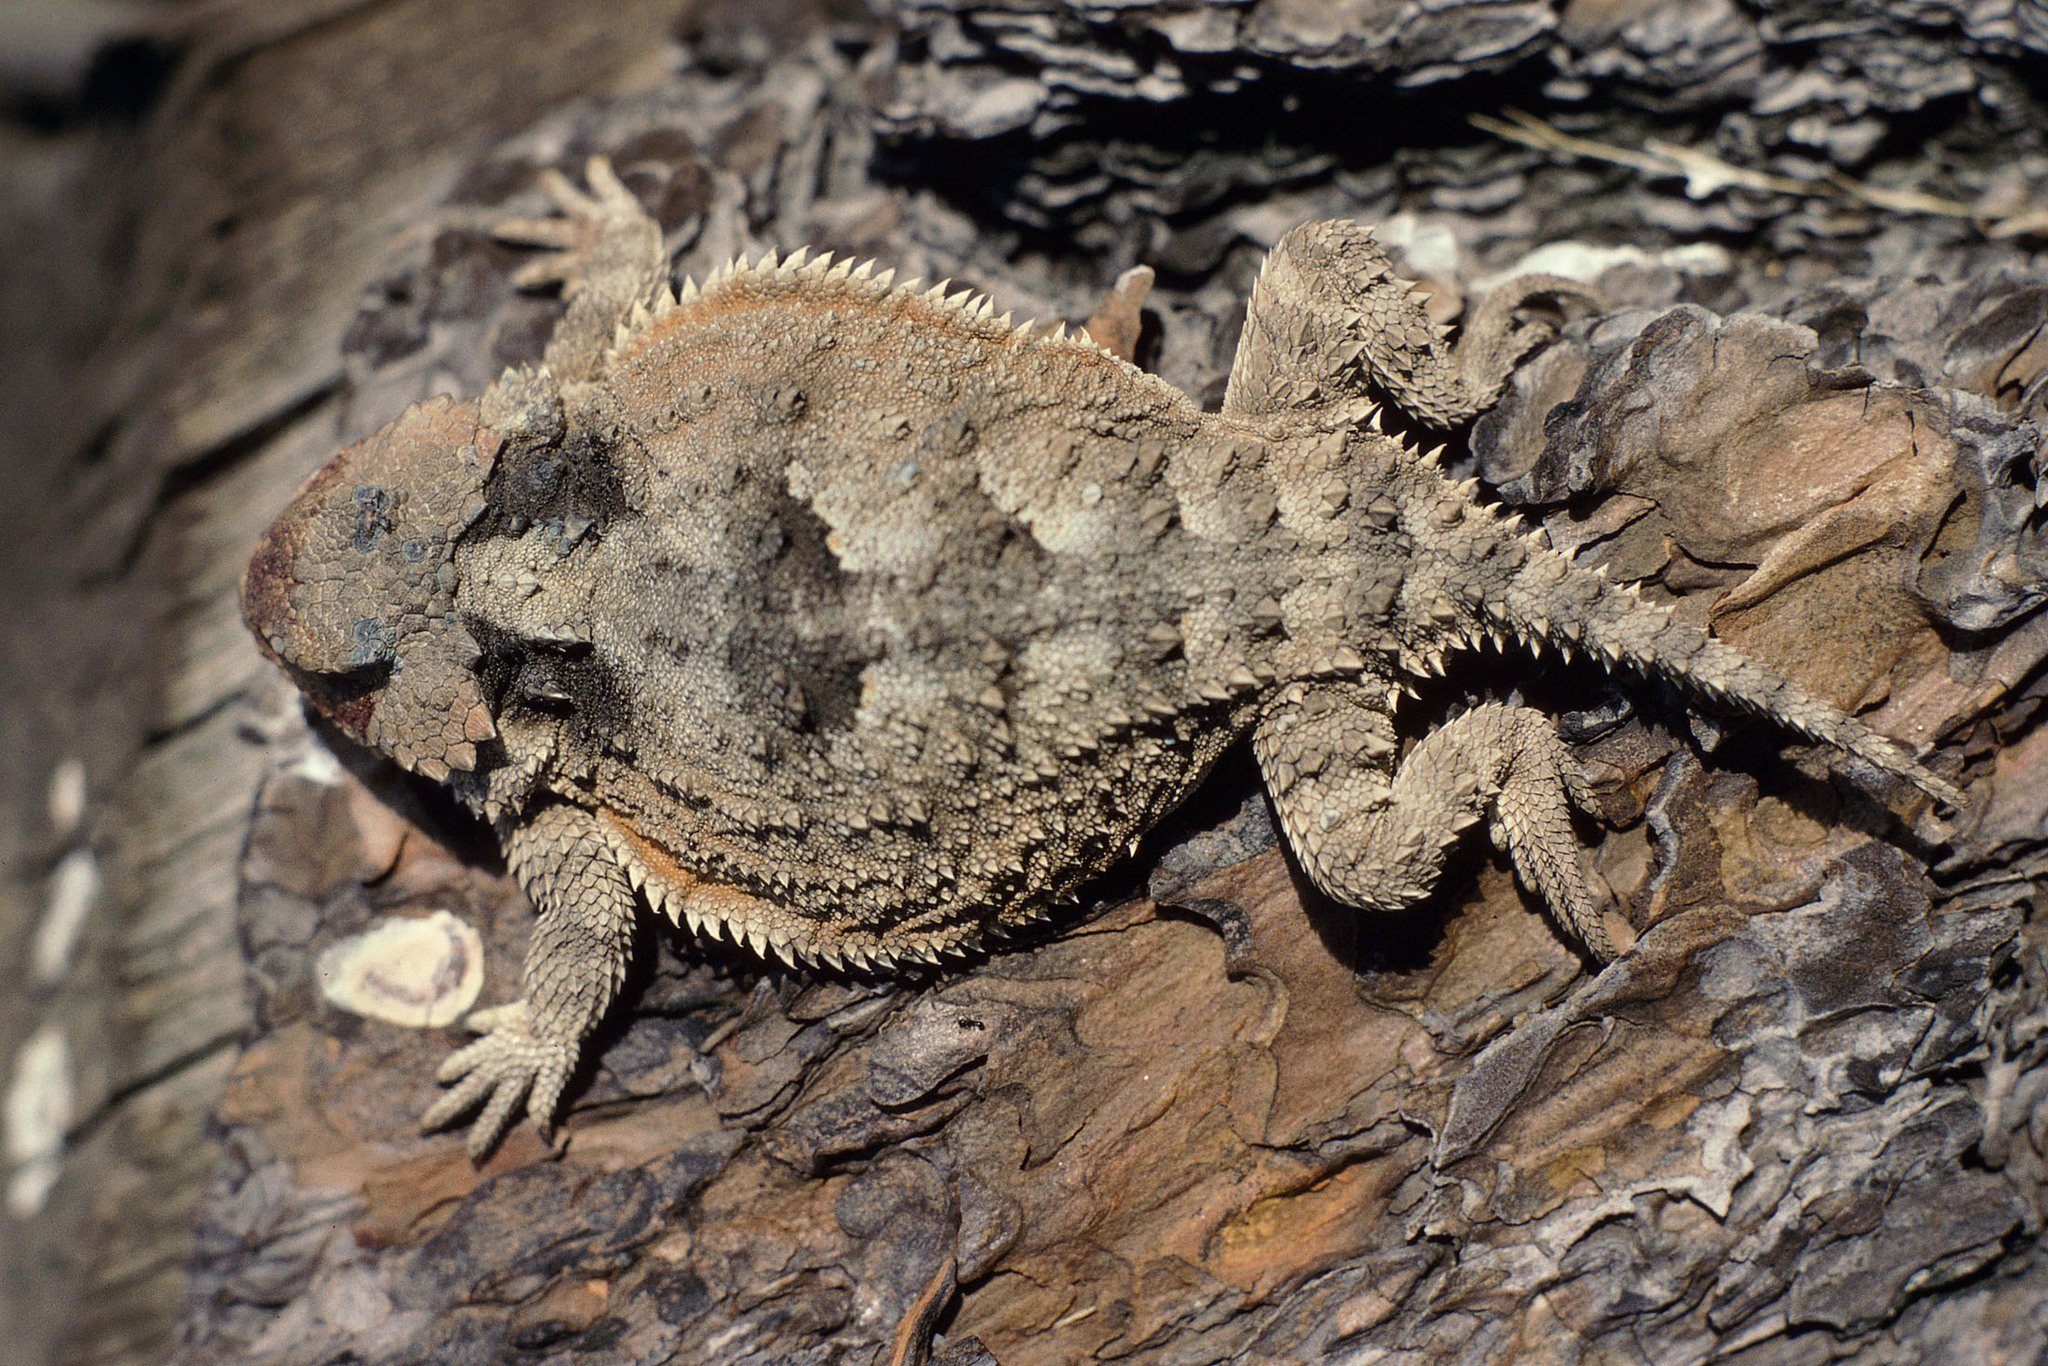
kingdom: Animalia
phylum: Chordata
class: Squamata
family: Phrynosomatidae
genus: Phrynosoma
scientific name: Phrynosoma hernandesi
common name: Greater short-horned lizard
